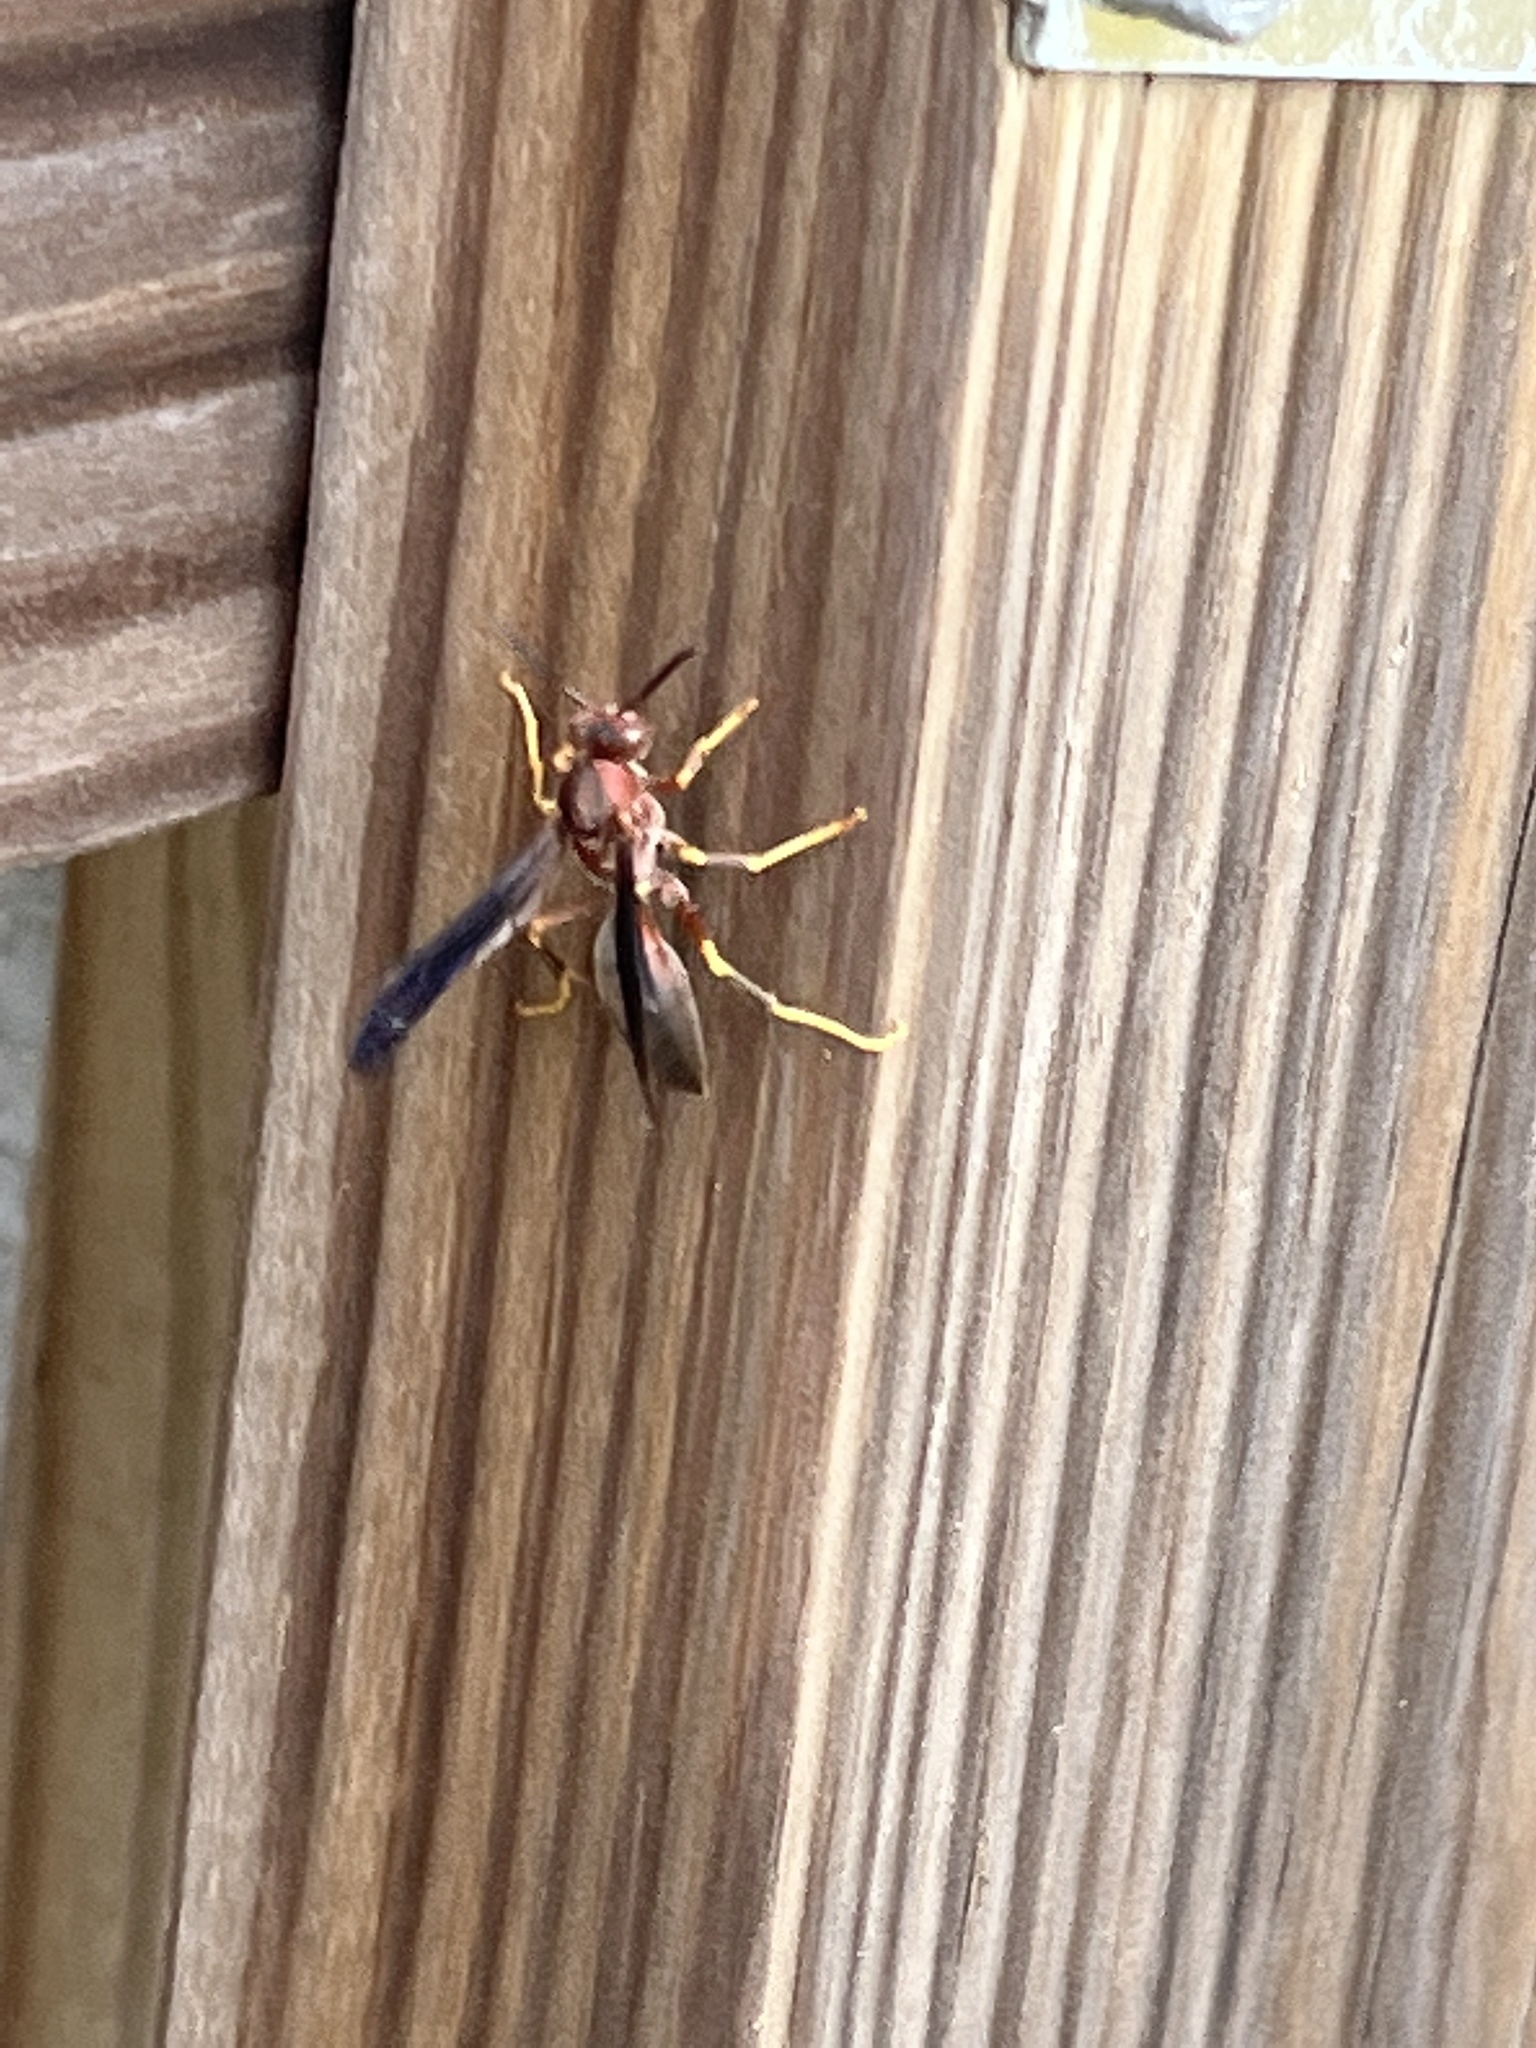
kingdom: Animalia
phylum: Arthropoda
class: Insecta
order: Hymenoptera
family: Eumenidae
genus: Polistes
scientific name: Polistes metricus
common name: Metric paper wasp
